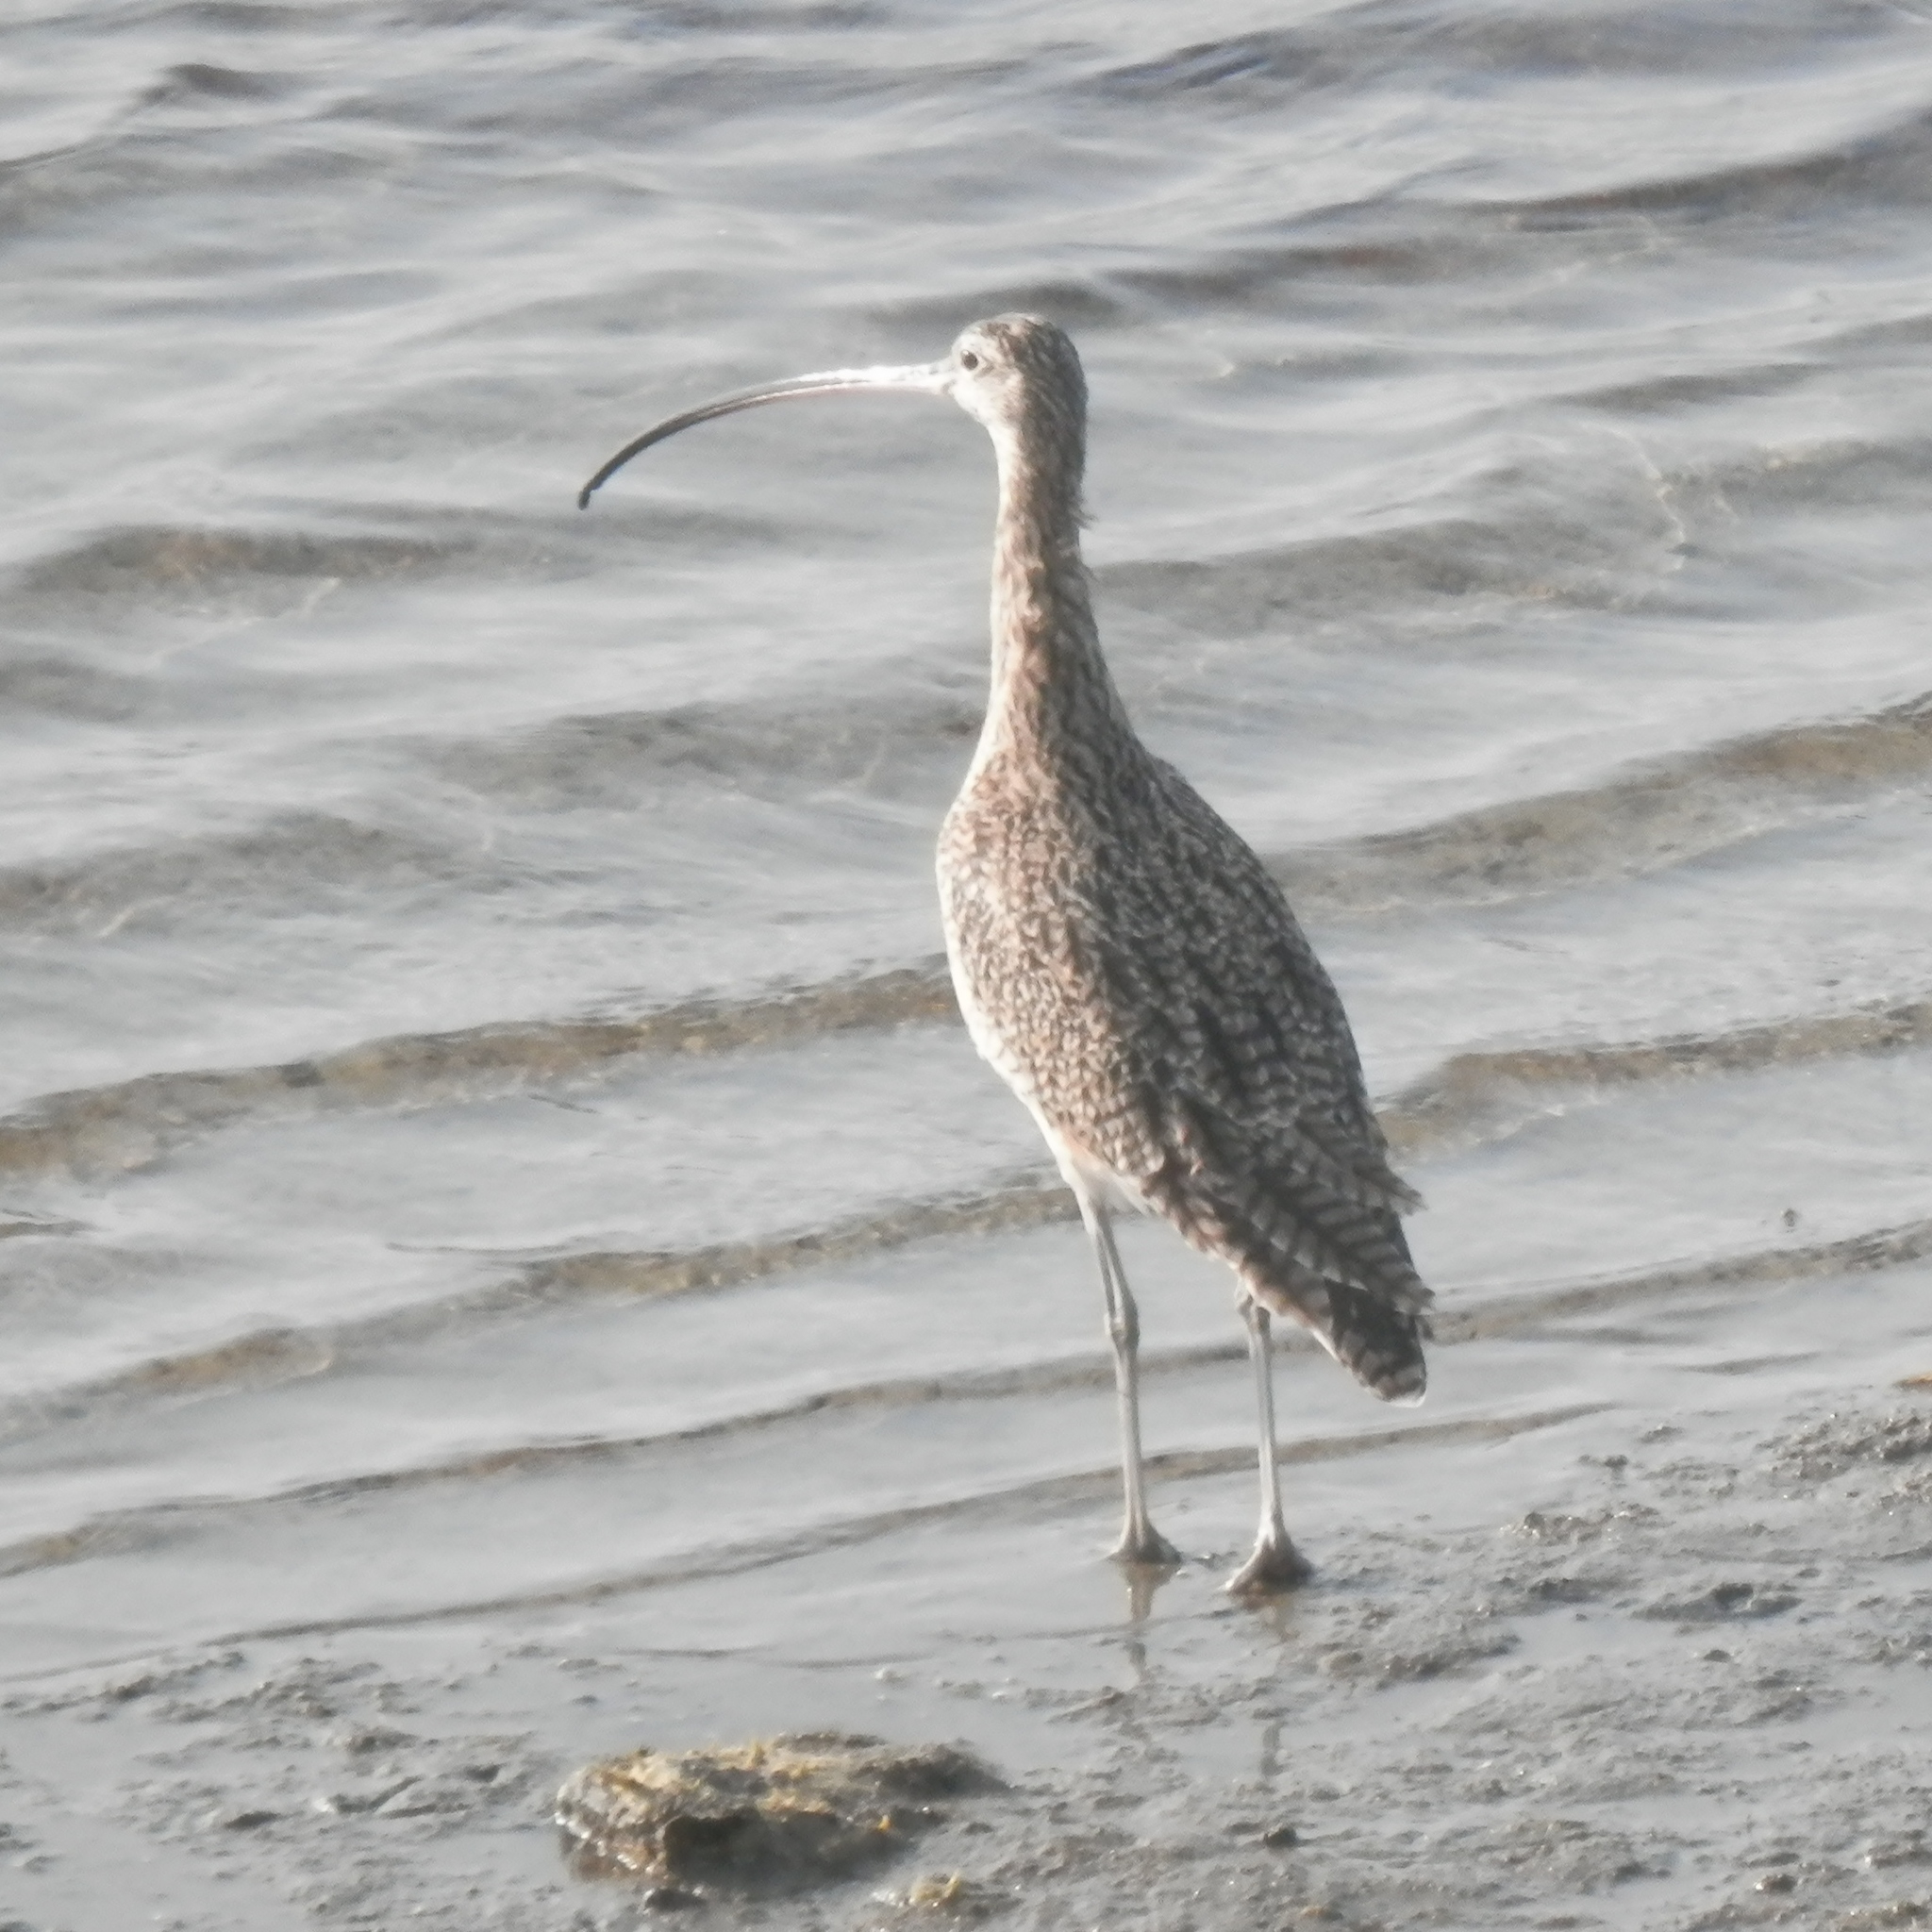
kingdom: Animalia
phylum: Chordata
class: Aves
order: Charadriiformes
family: Scolopacidae
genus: Numenius
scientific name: Numenius americanus
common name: Long-billed curlew
